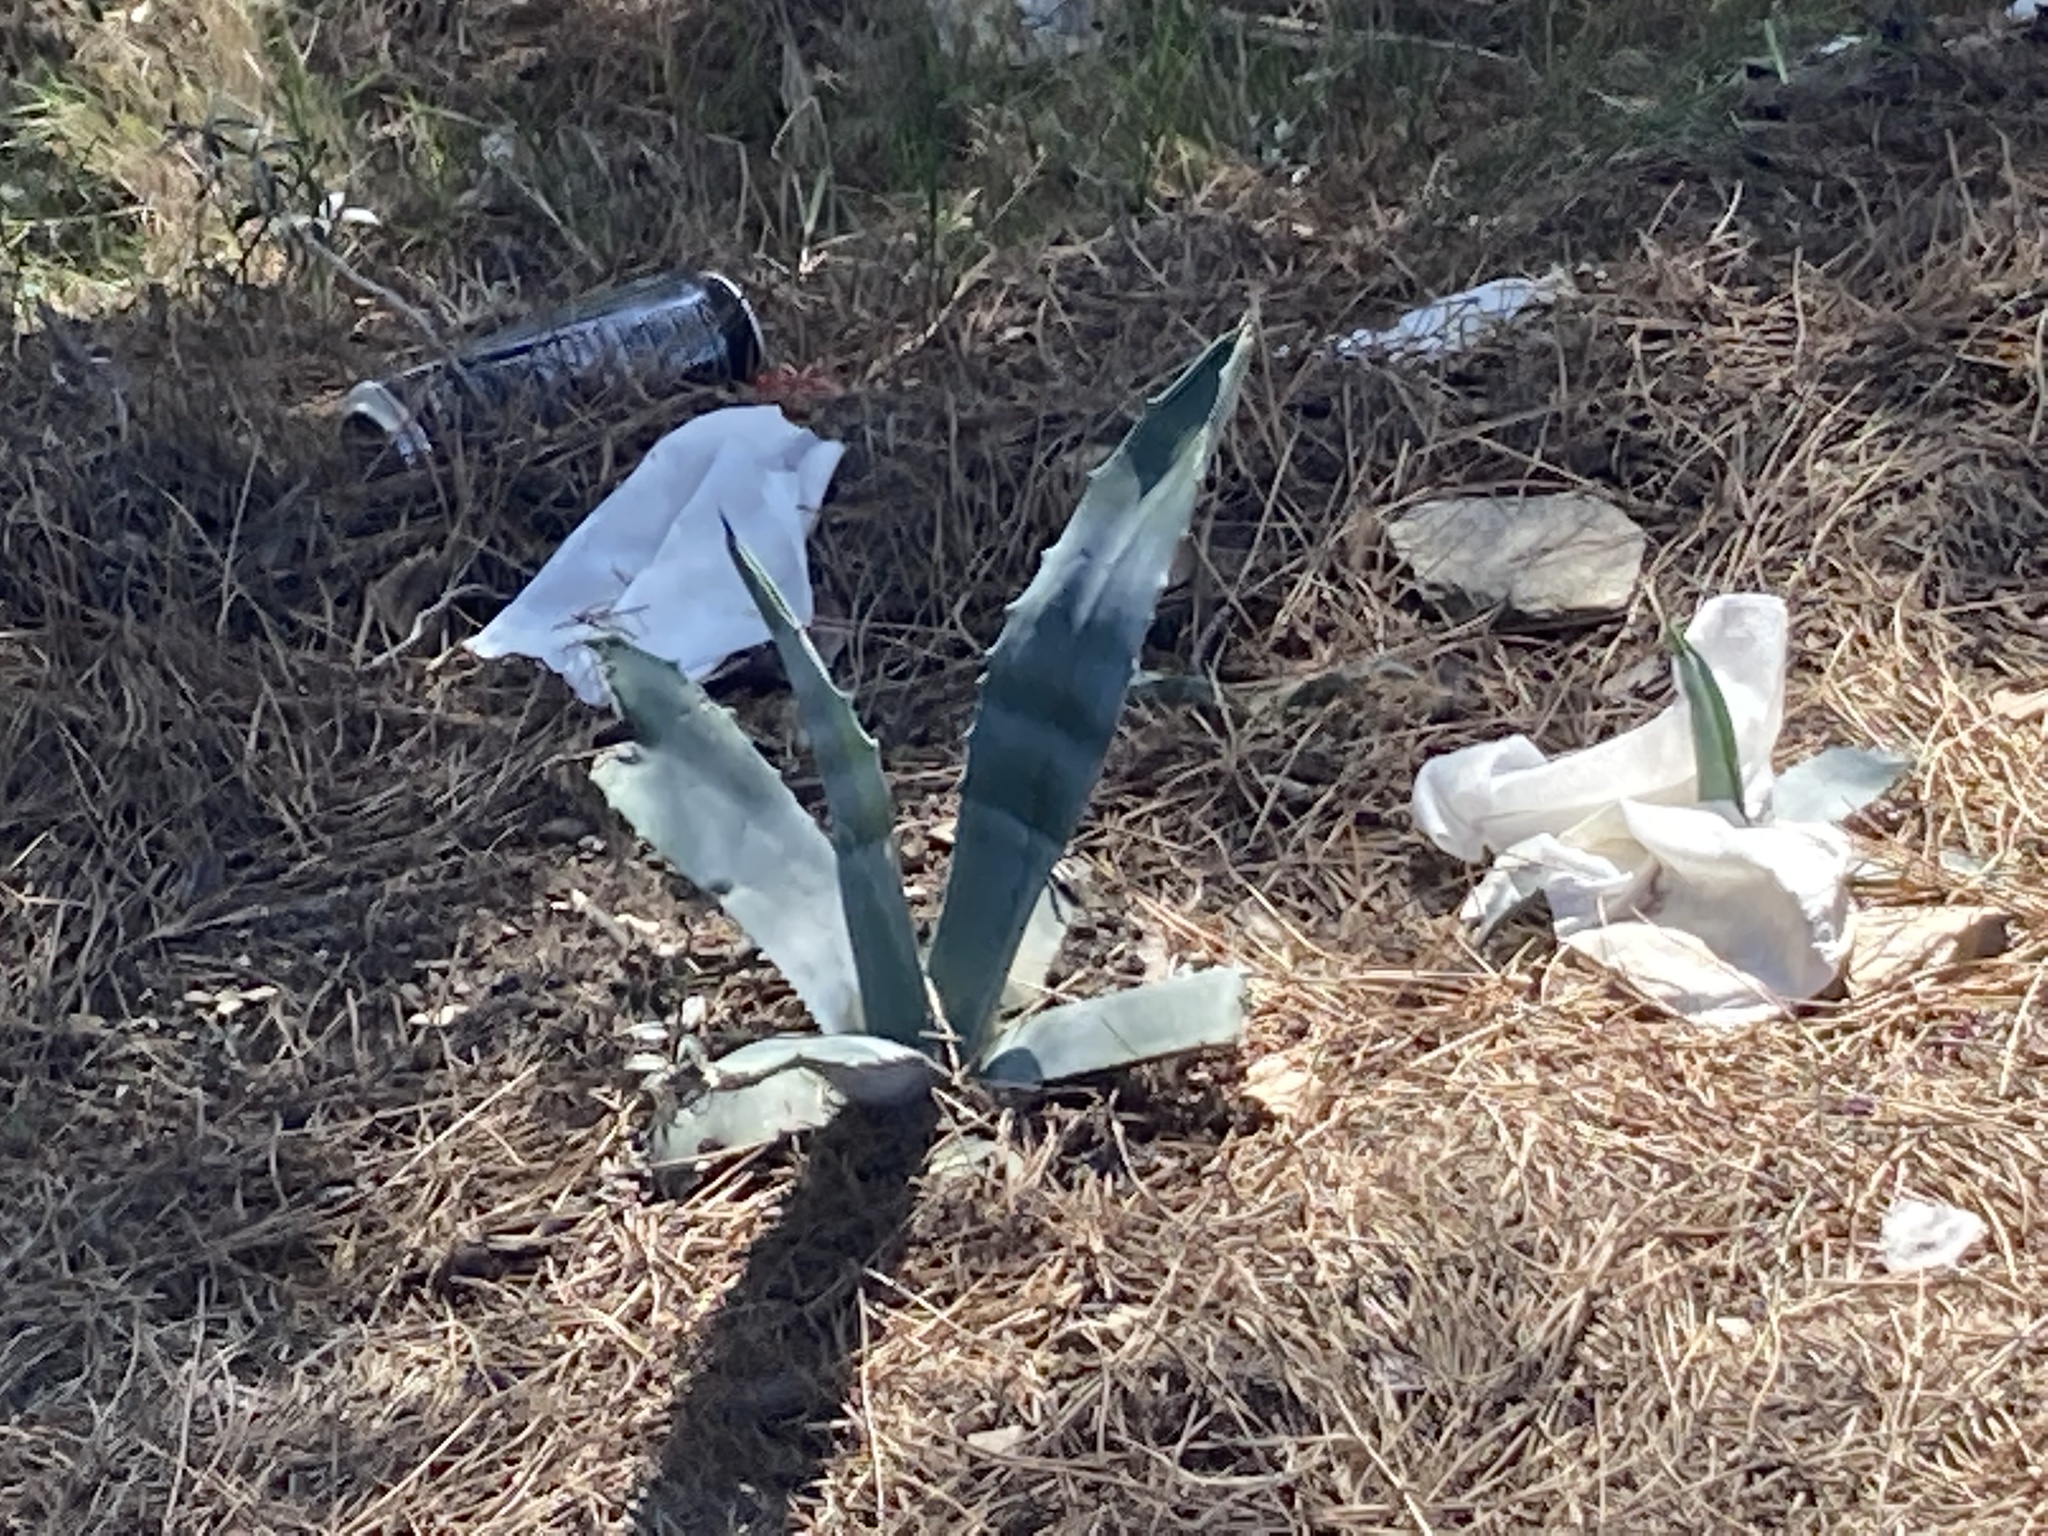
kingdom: Plantae
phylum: Tracheophyta
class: Liliopsida
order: Asparagales
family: Asparagaceae
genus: Agave
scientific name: Agave americana
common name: Centuryplant
